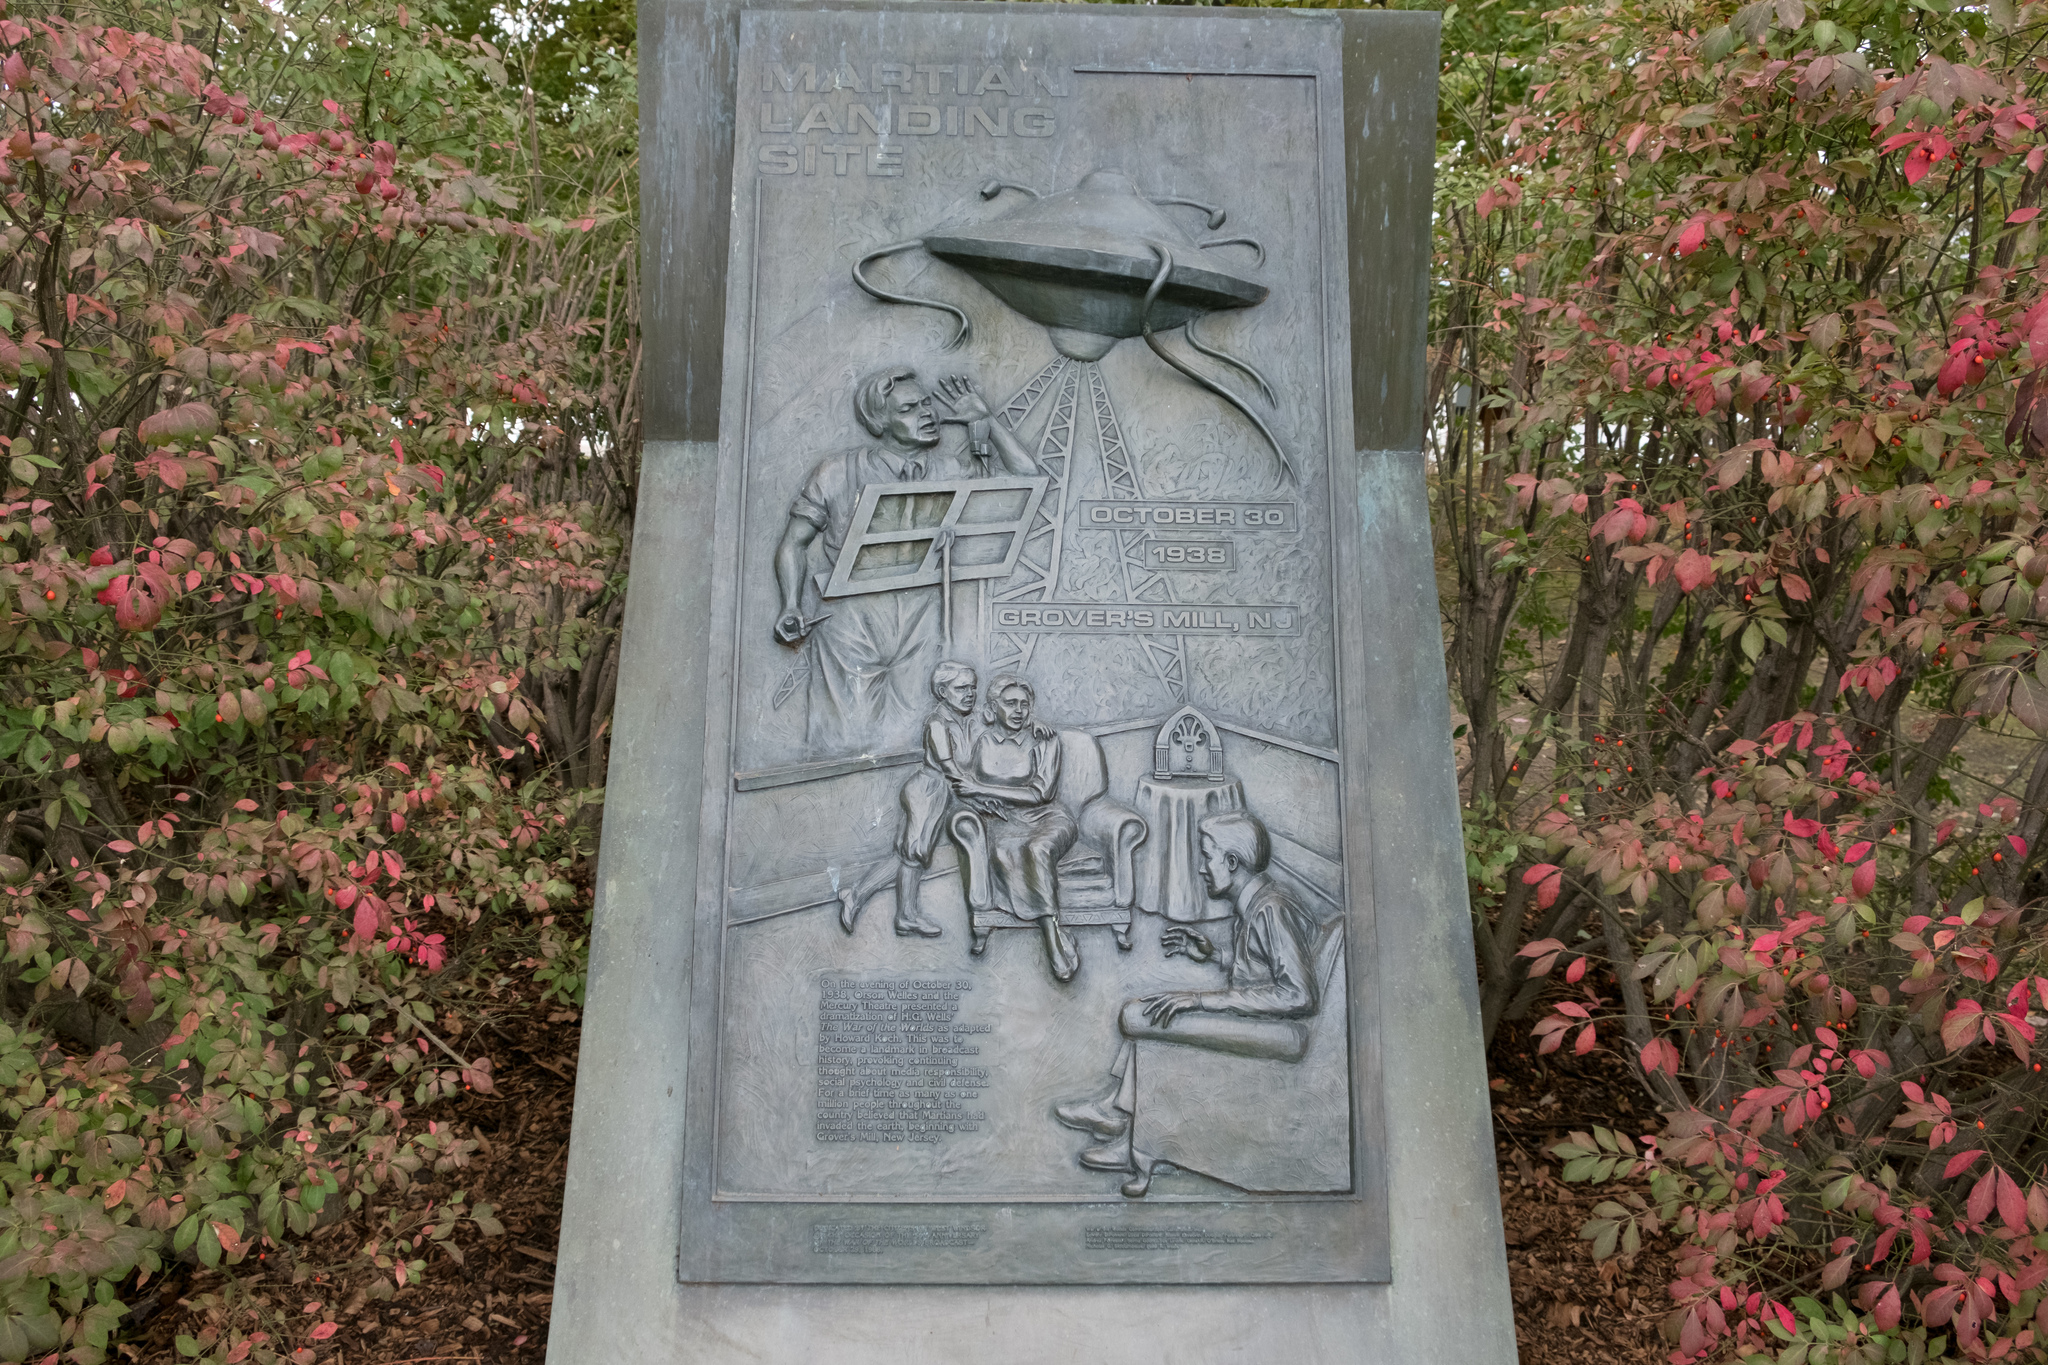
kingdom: Plantae
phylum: Tracheophyta
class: Magnoliopsida
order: Celastrales
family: Celastraceae
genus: Euonymus
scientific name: Euonymus alatus
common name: Winged euonymus
